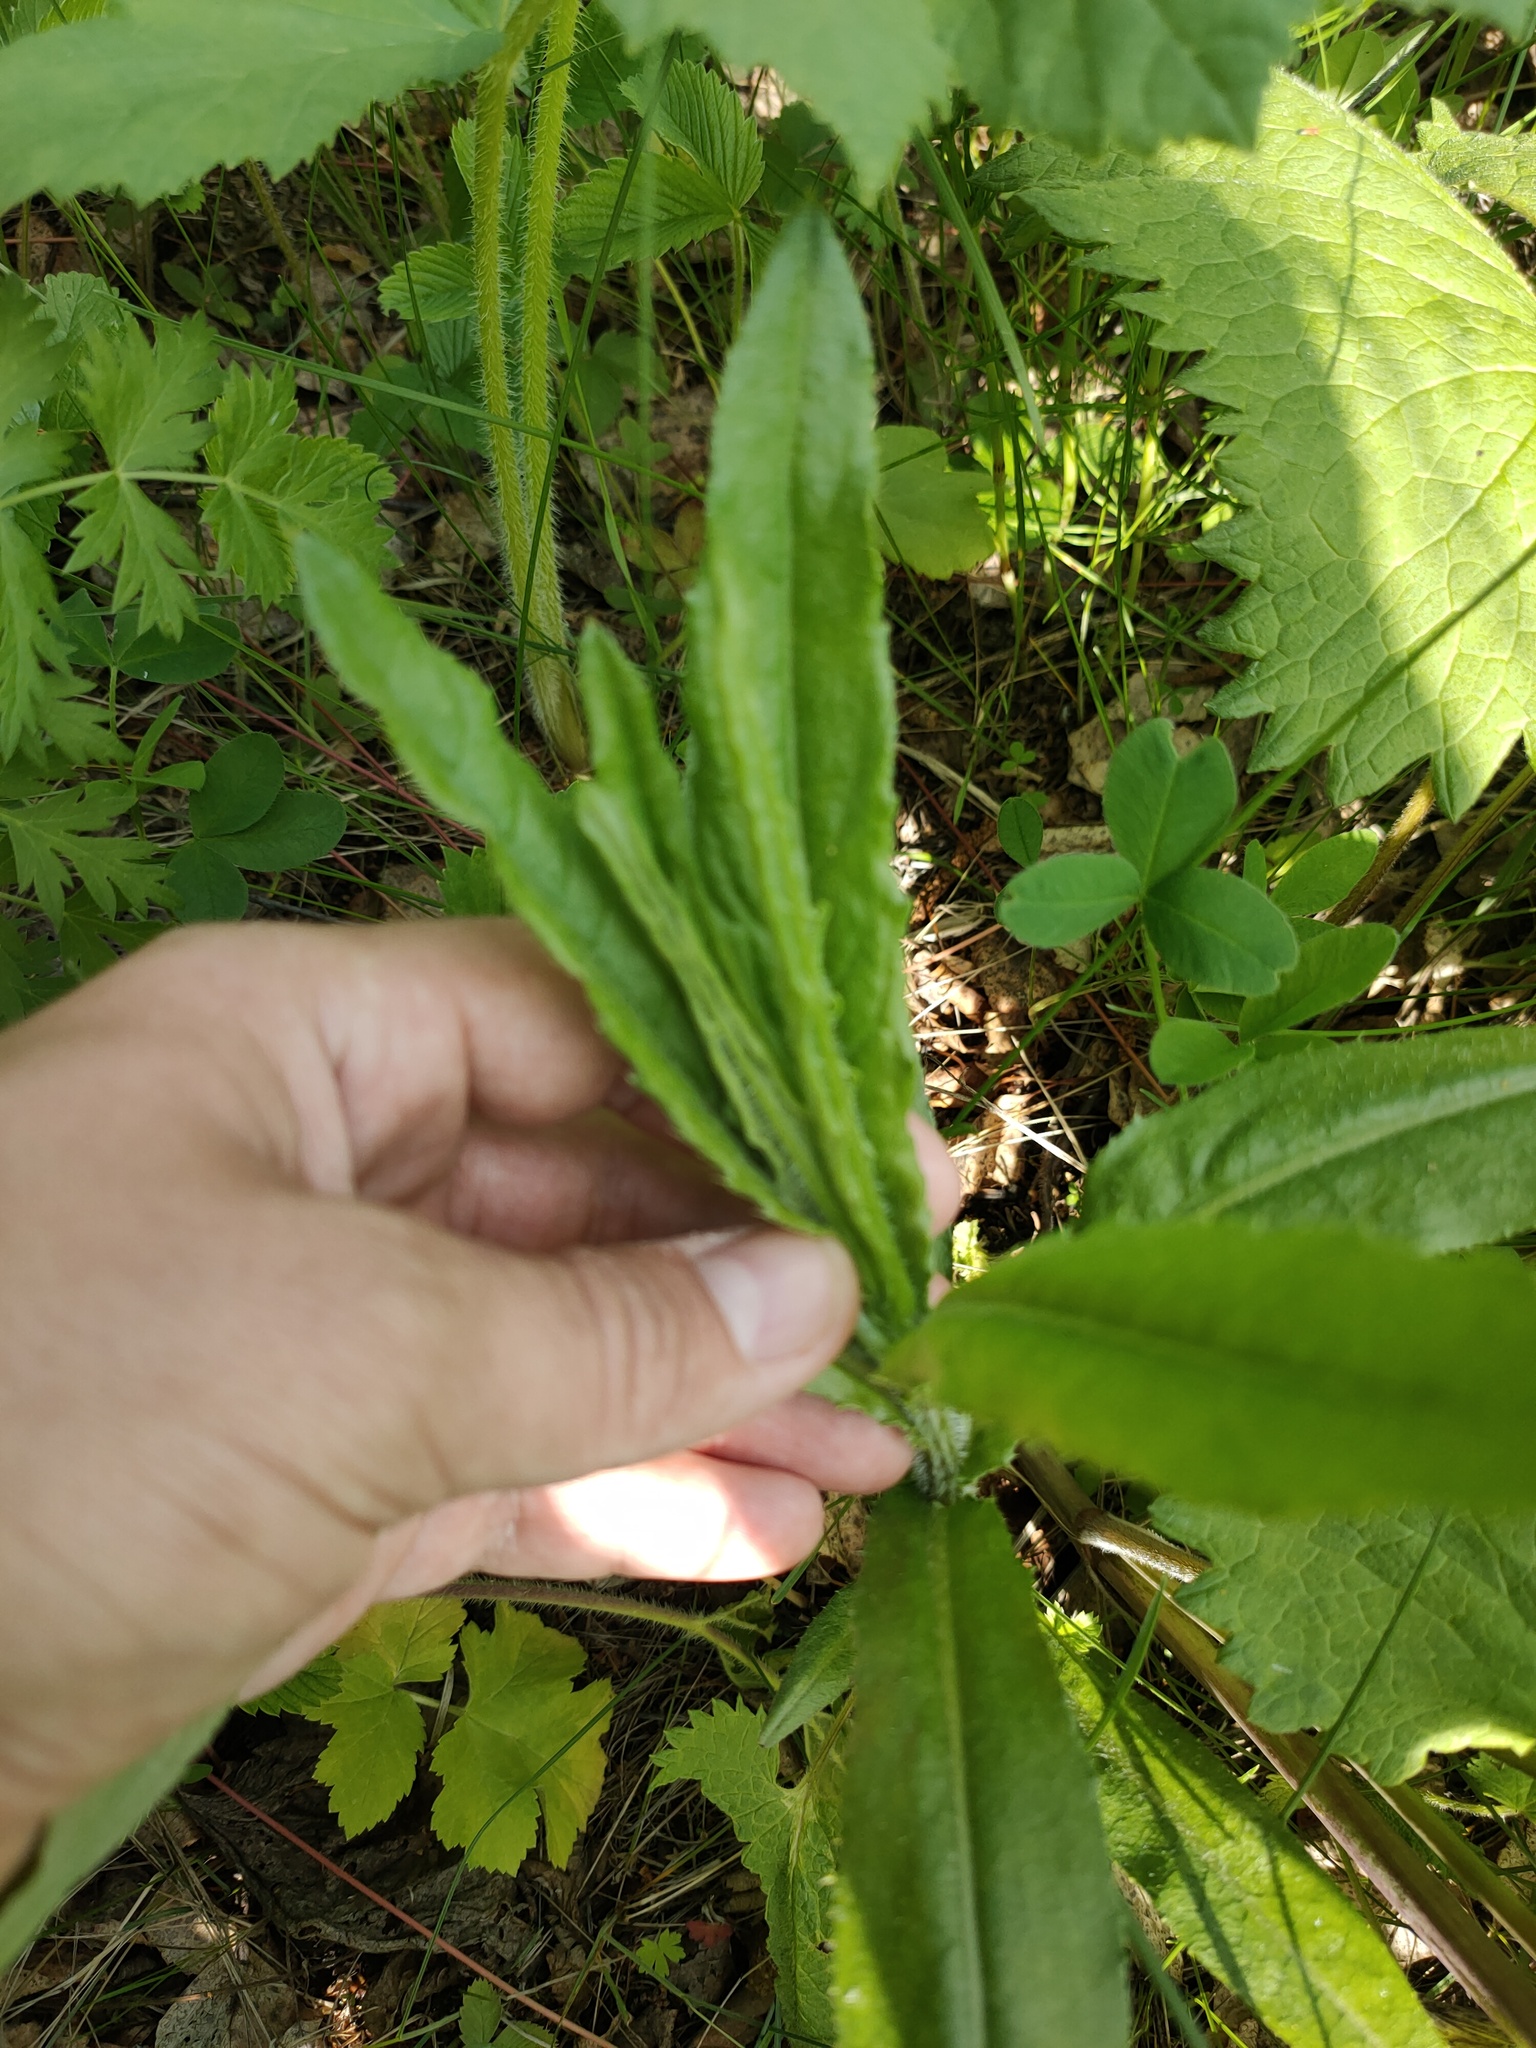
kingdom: Plantae
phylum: Tracheophyta
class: Magnoliopsida
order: Asterales
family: Asteraceae
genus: Cirsium
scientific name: Cirsium arvense
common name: Creeping thistle
